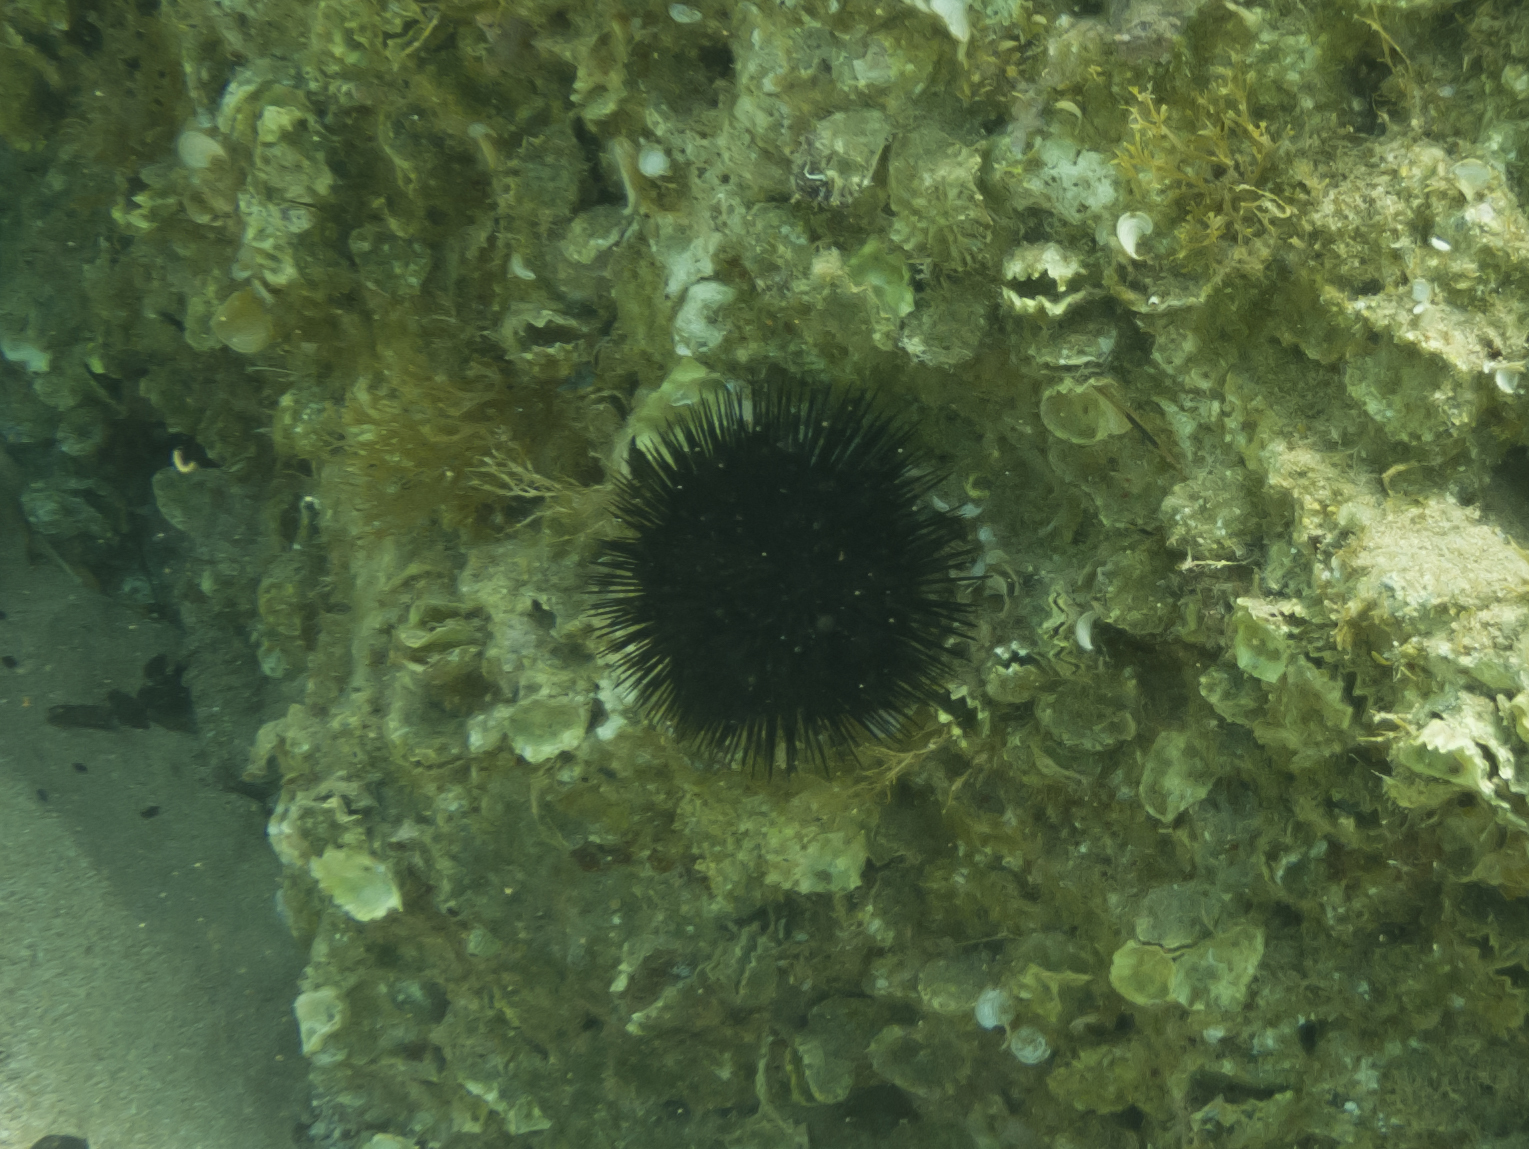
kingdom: Animalia
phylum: Echinodermata
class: Echinoidea
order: Arbacioida
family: Arbaciidae
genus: Arbacia
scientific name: Arbacia lixula
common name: Black sea urchin
